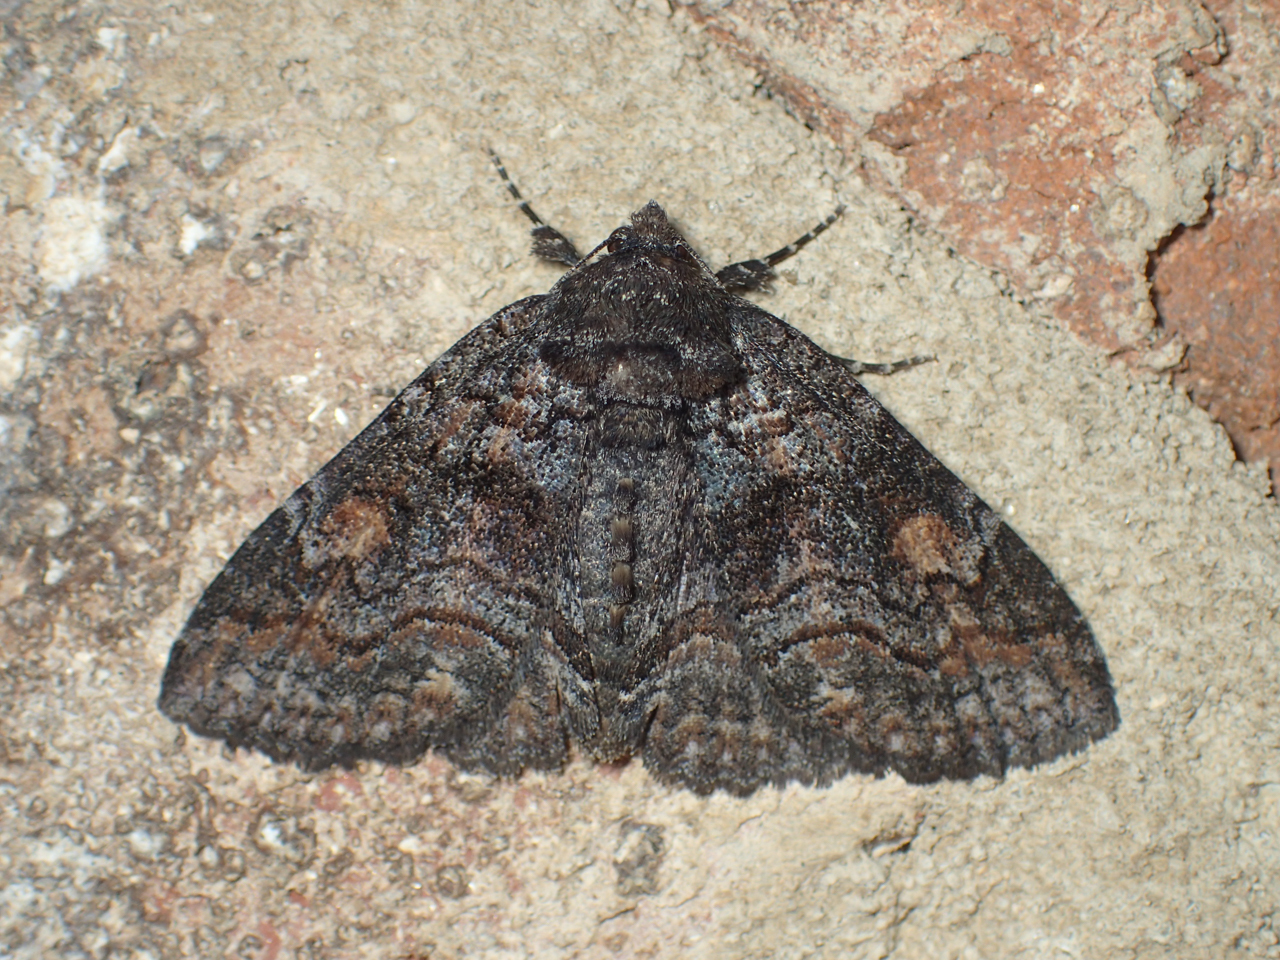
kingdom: Animalia
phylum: Arthropoda
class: Insecta
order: Lepidoptera
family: Erebidae
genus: Zale
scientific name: Zale bethunei
